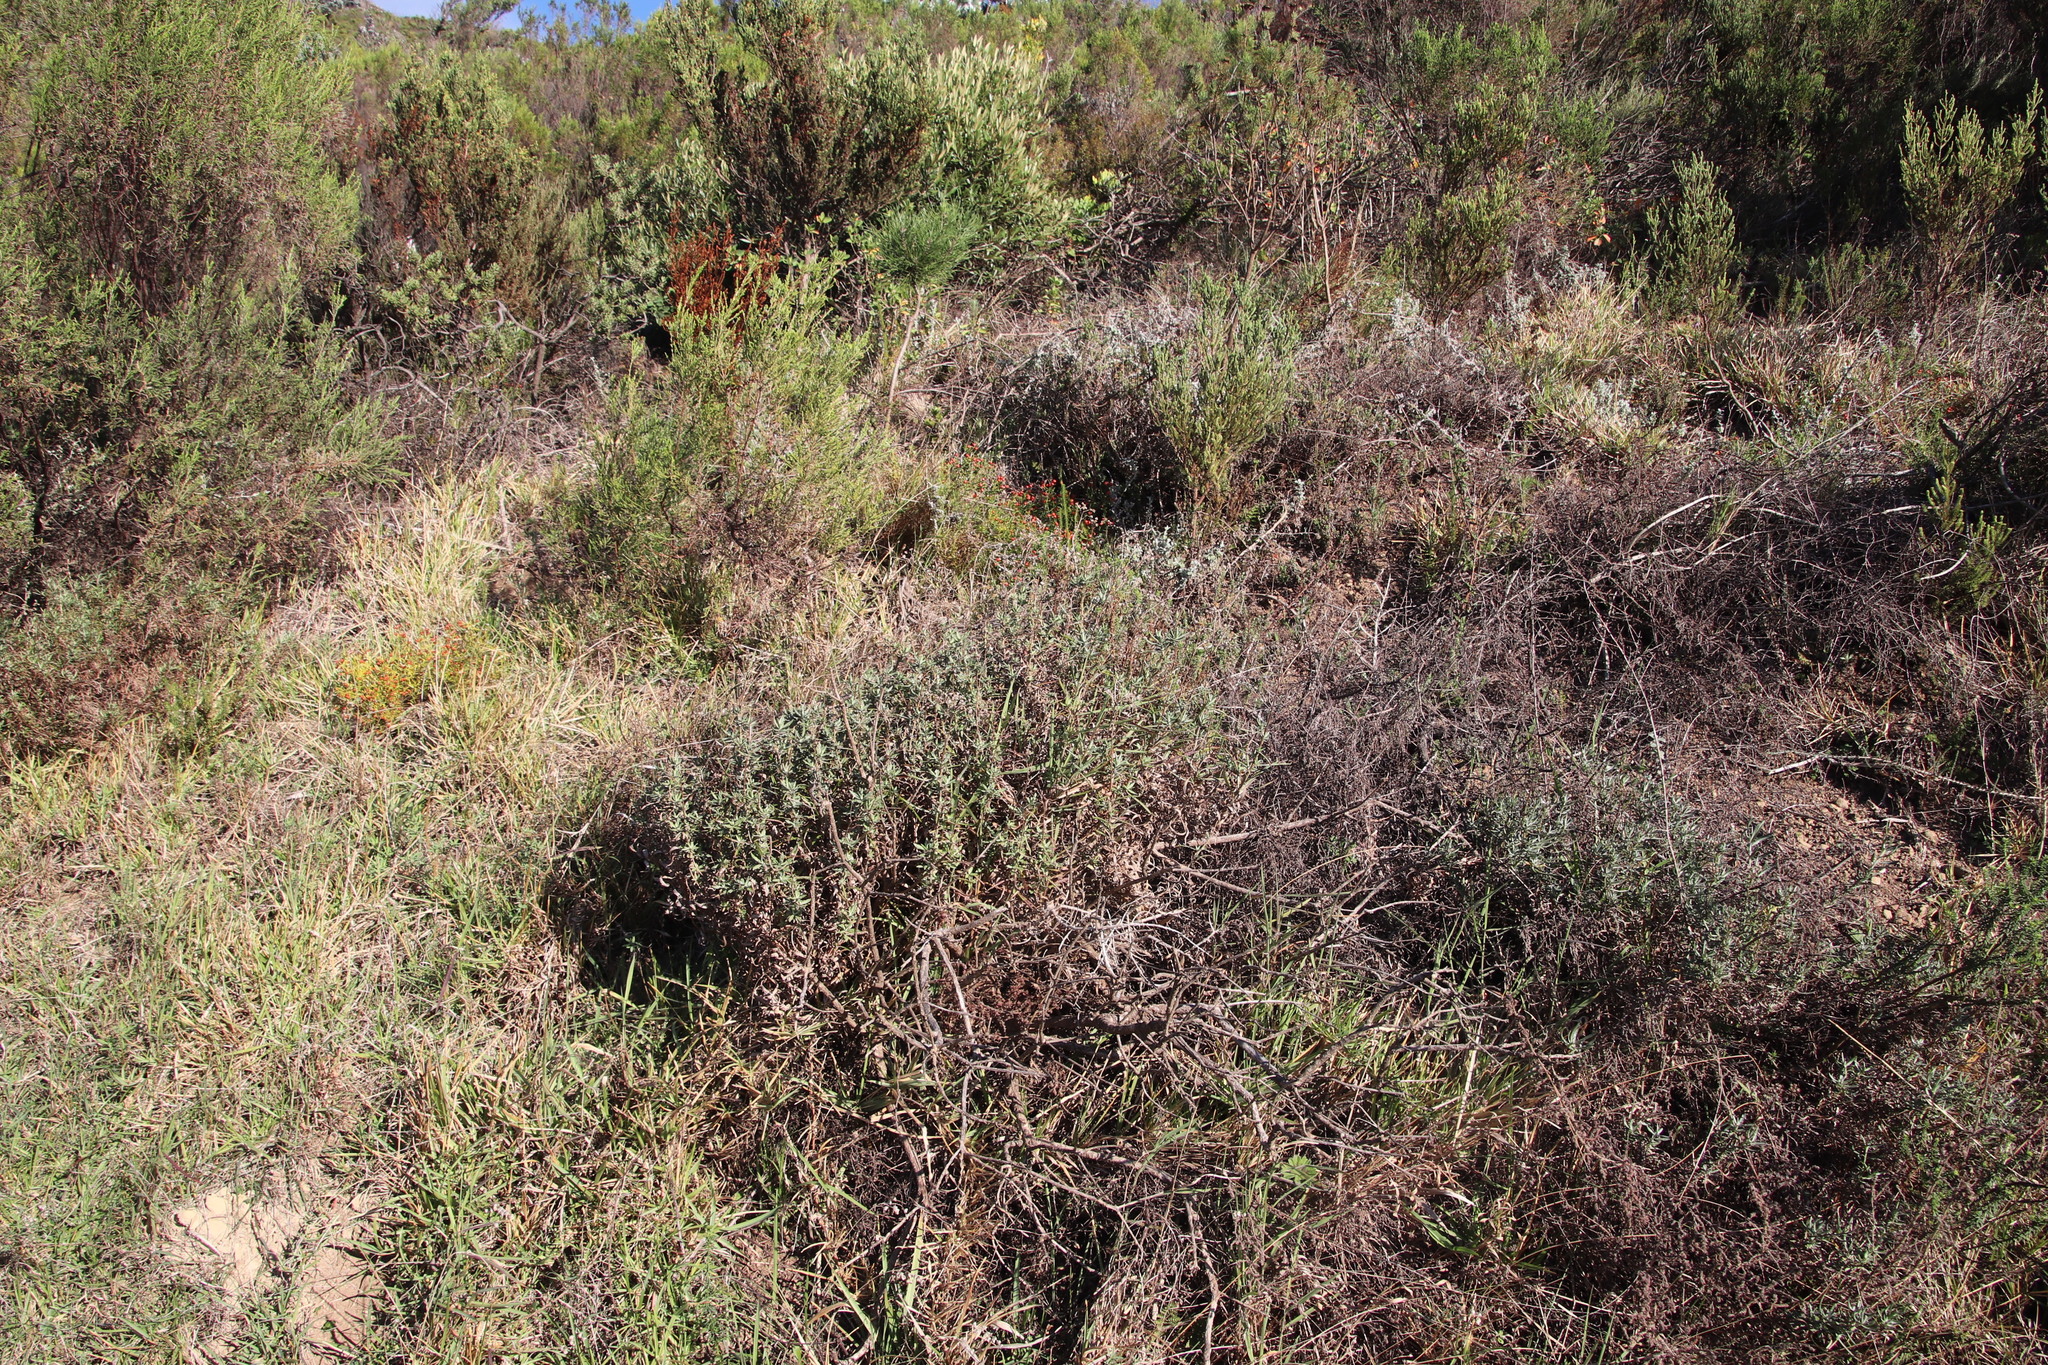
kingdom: Plantae
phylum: Tracheophyta
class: Magnoliopsida
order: Asterales
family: Asteraceae
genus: Senecio
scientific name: Senecio pterophorus
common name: Shoddy ragwort
